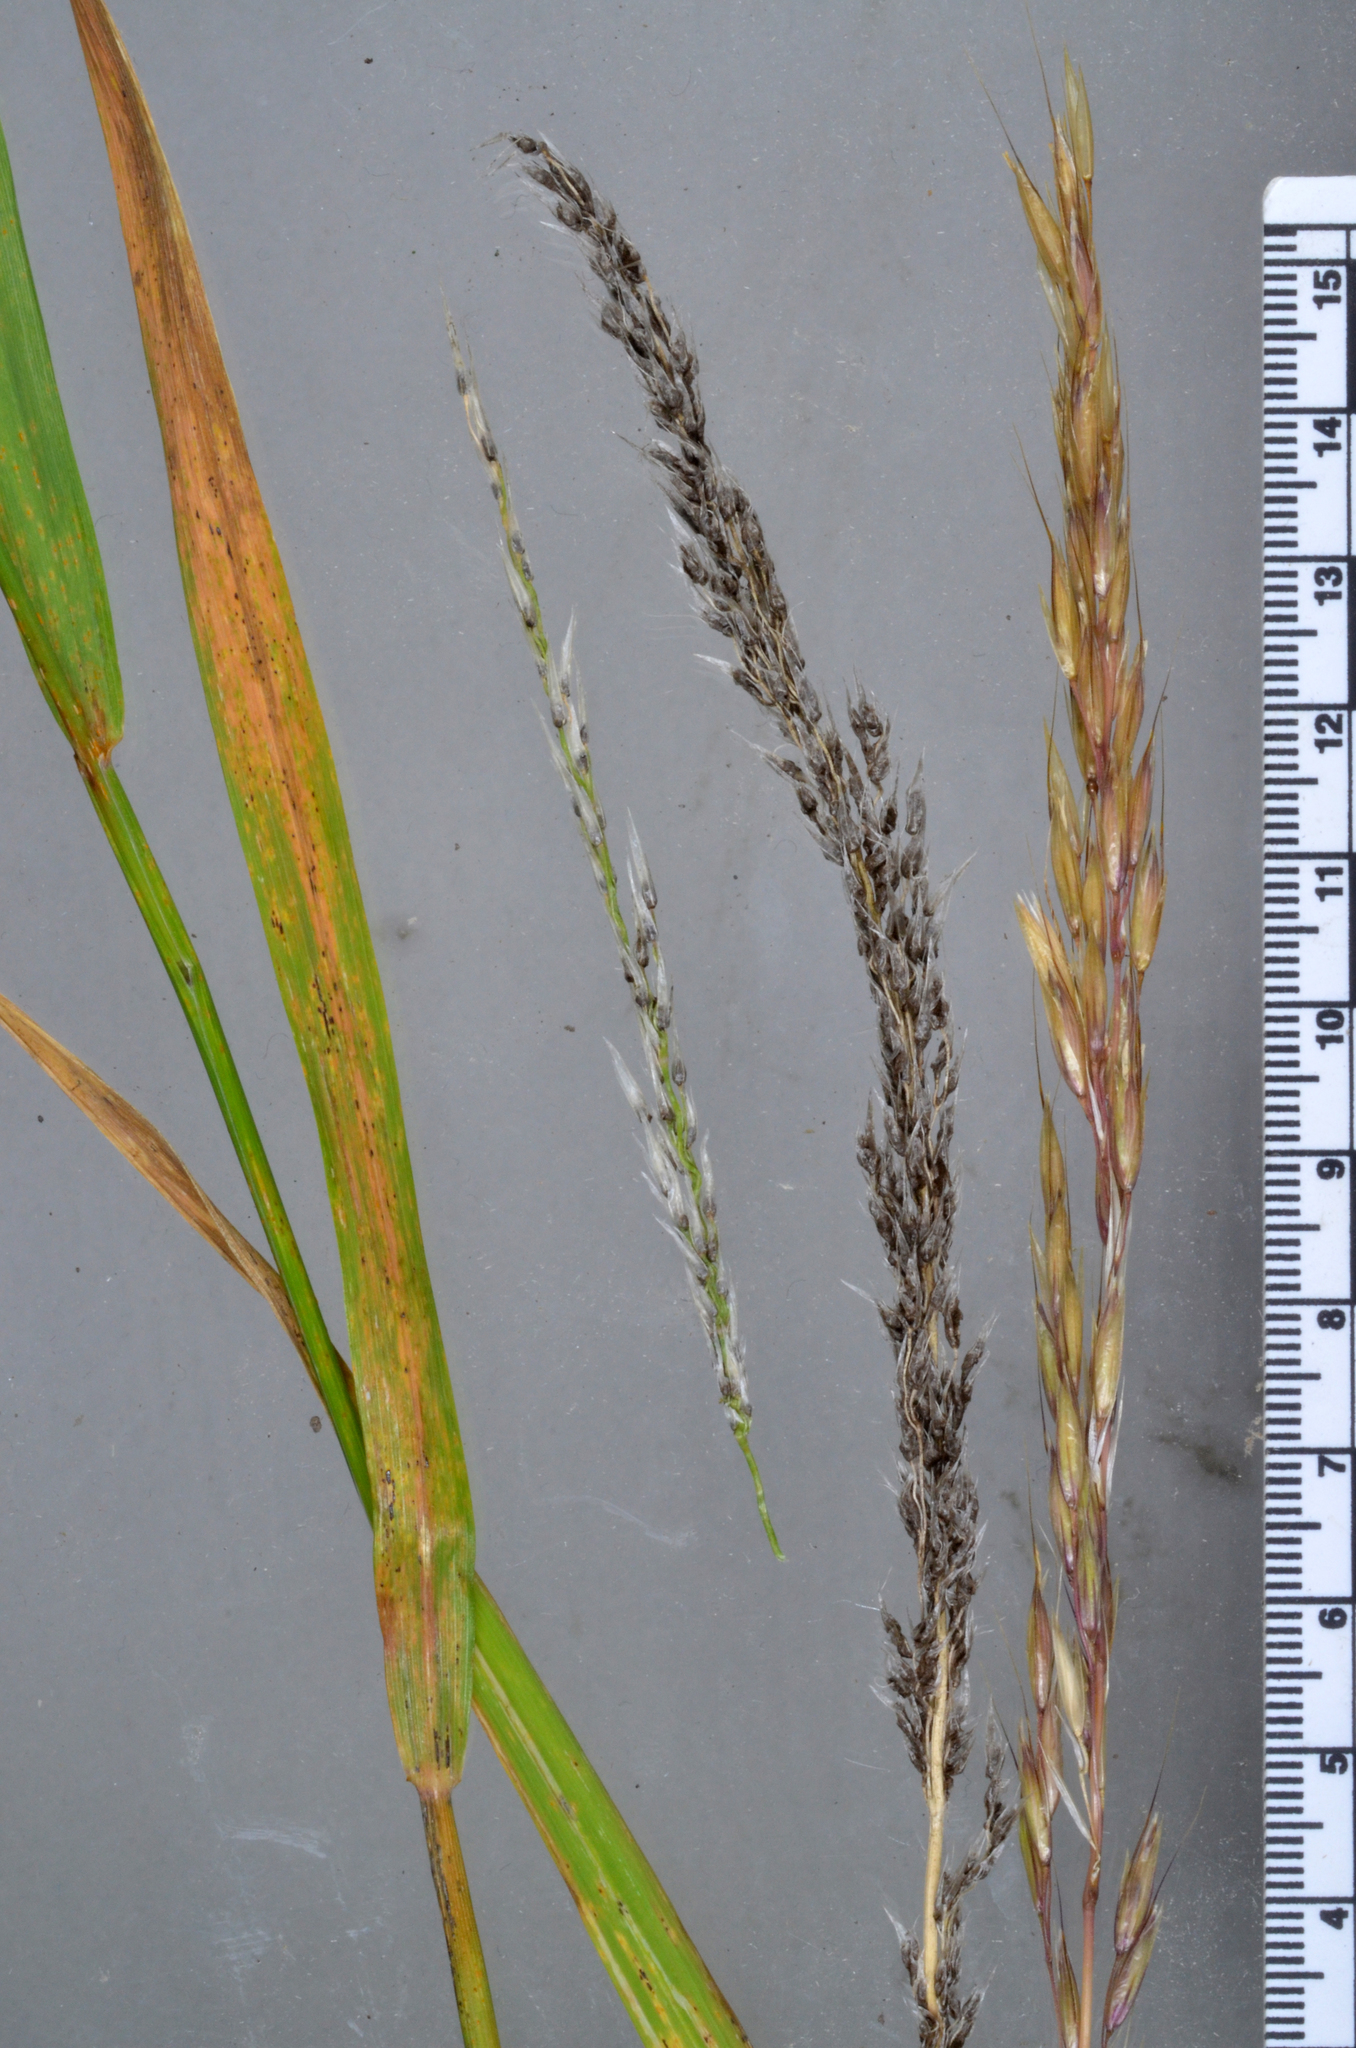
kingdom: Fungi
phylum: Basidiomycota
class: Pucciniomycetes
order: Pucciniales
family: Pucciniaceae
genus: Puccinia
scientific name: Puccinia coronata
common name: Crown rust
